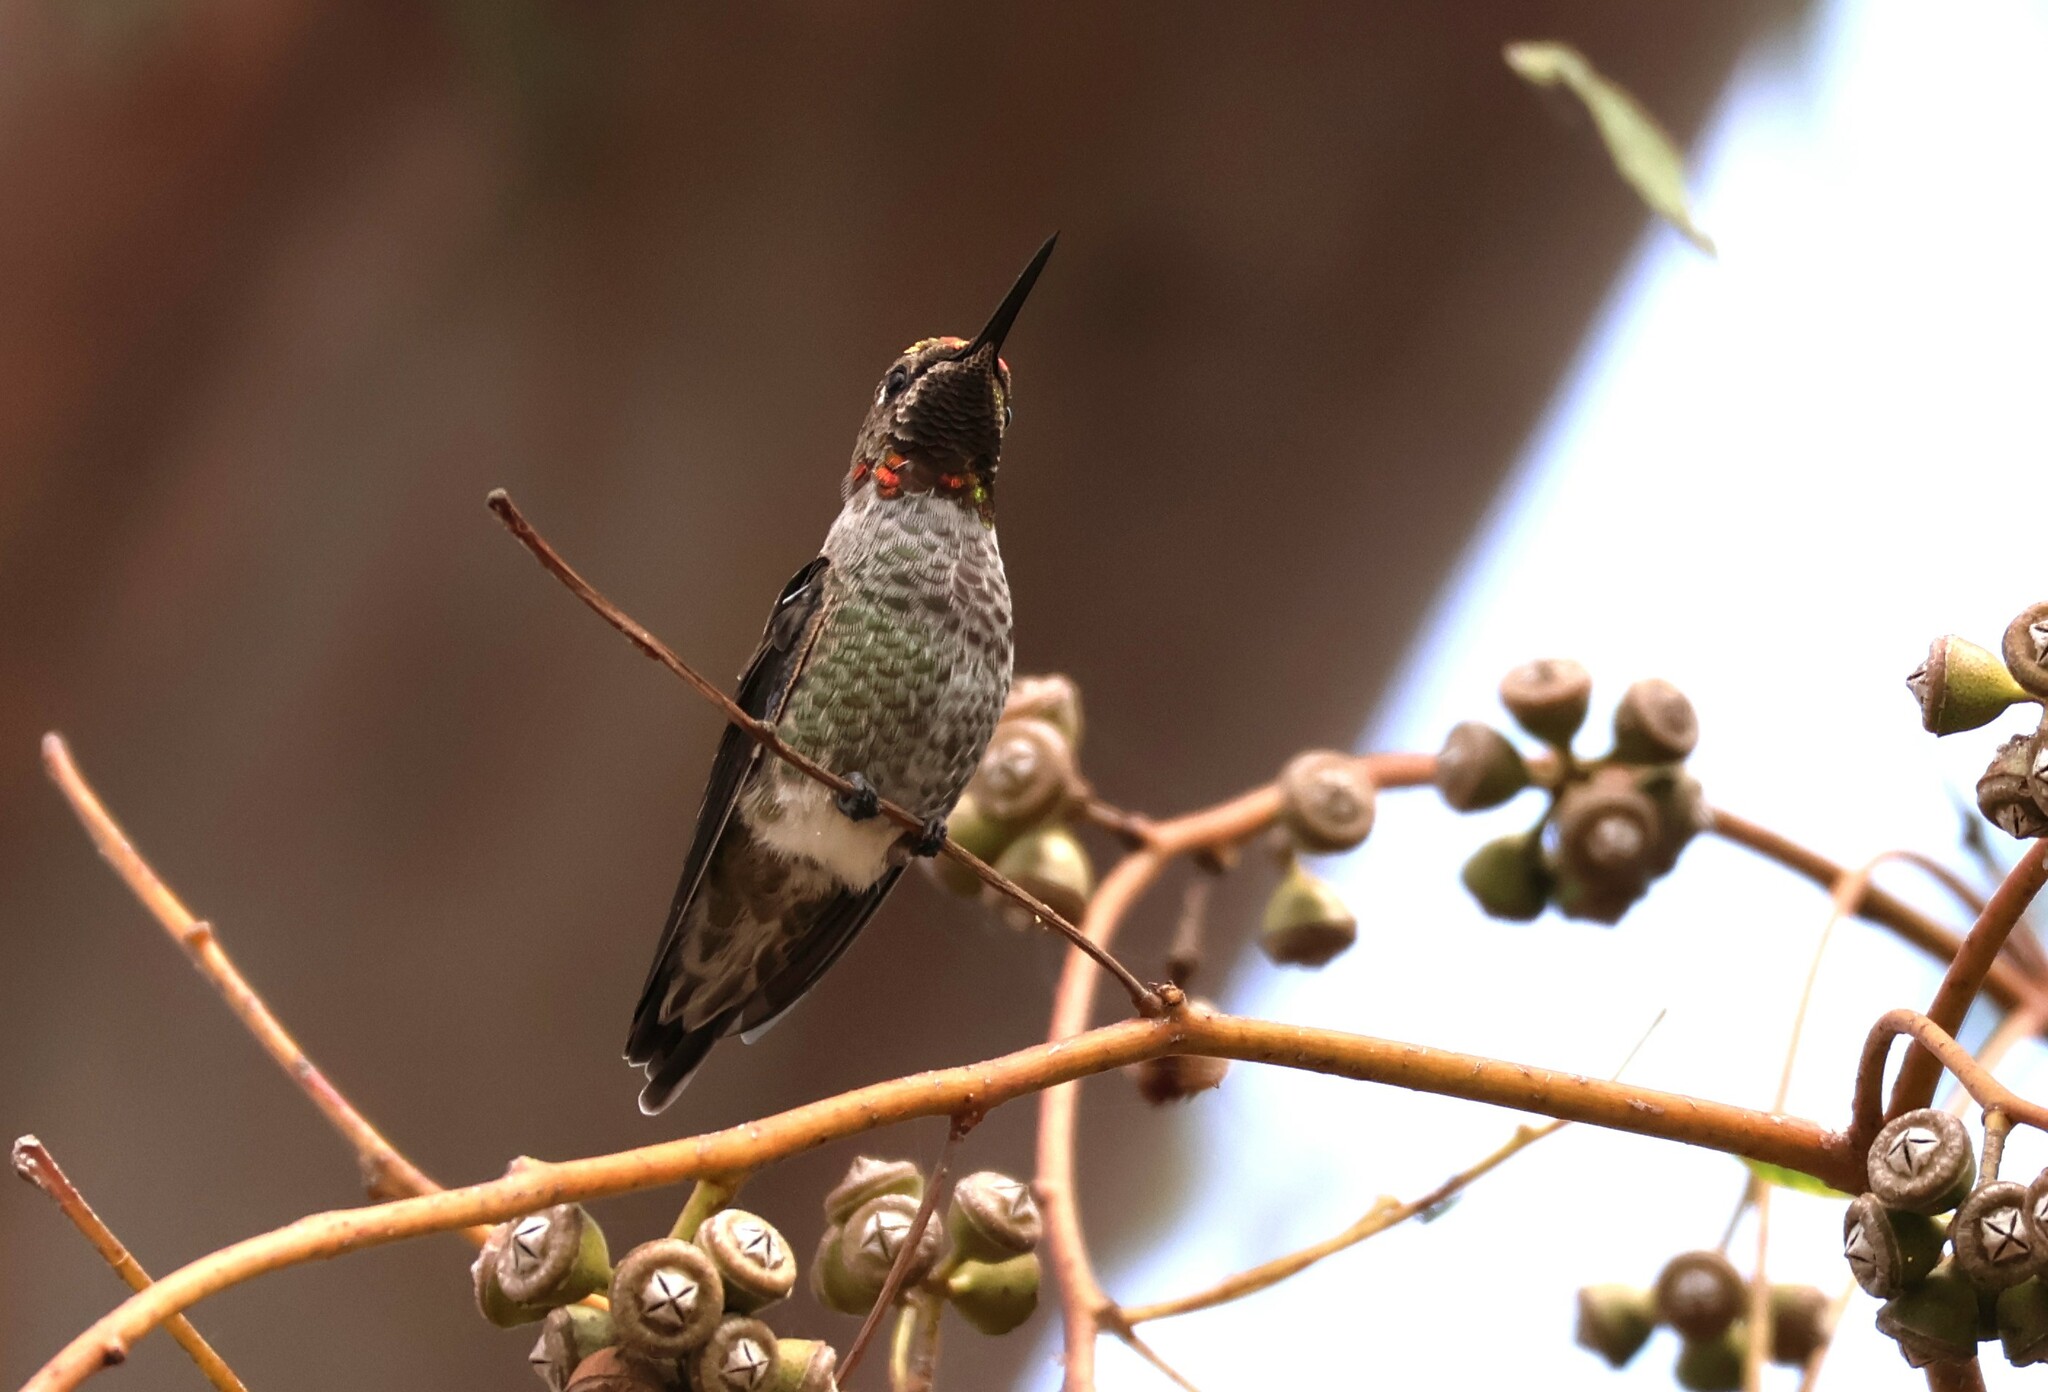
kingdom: Animalia
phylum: Chordata
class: Aves
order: Apodiformes
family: Trochilidae
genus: Calypte
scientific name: Calypte anna
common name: Anna's hummingbird
